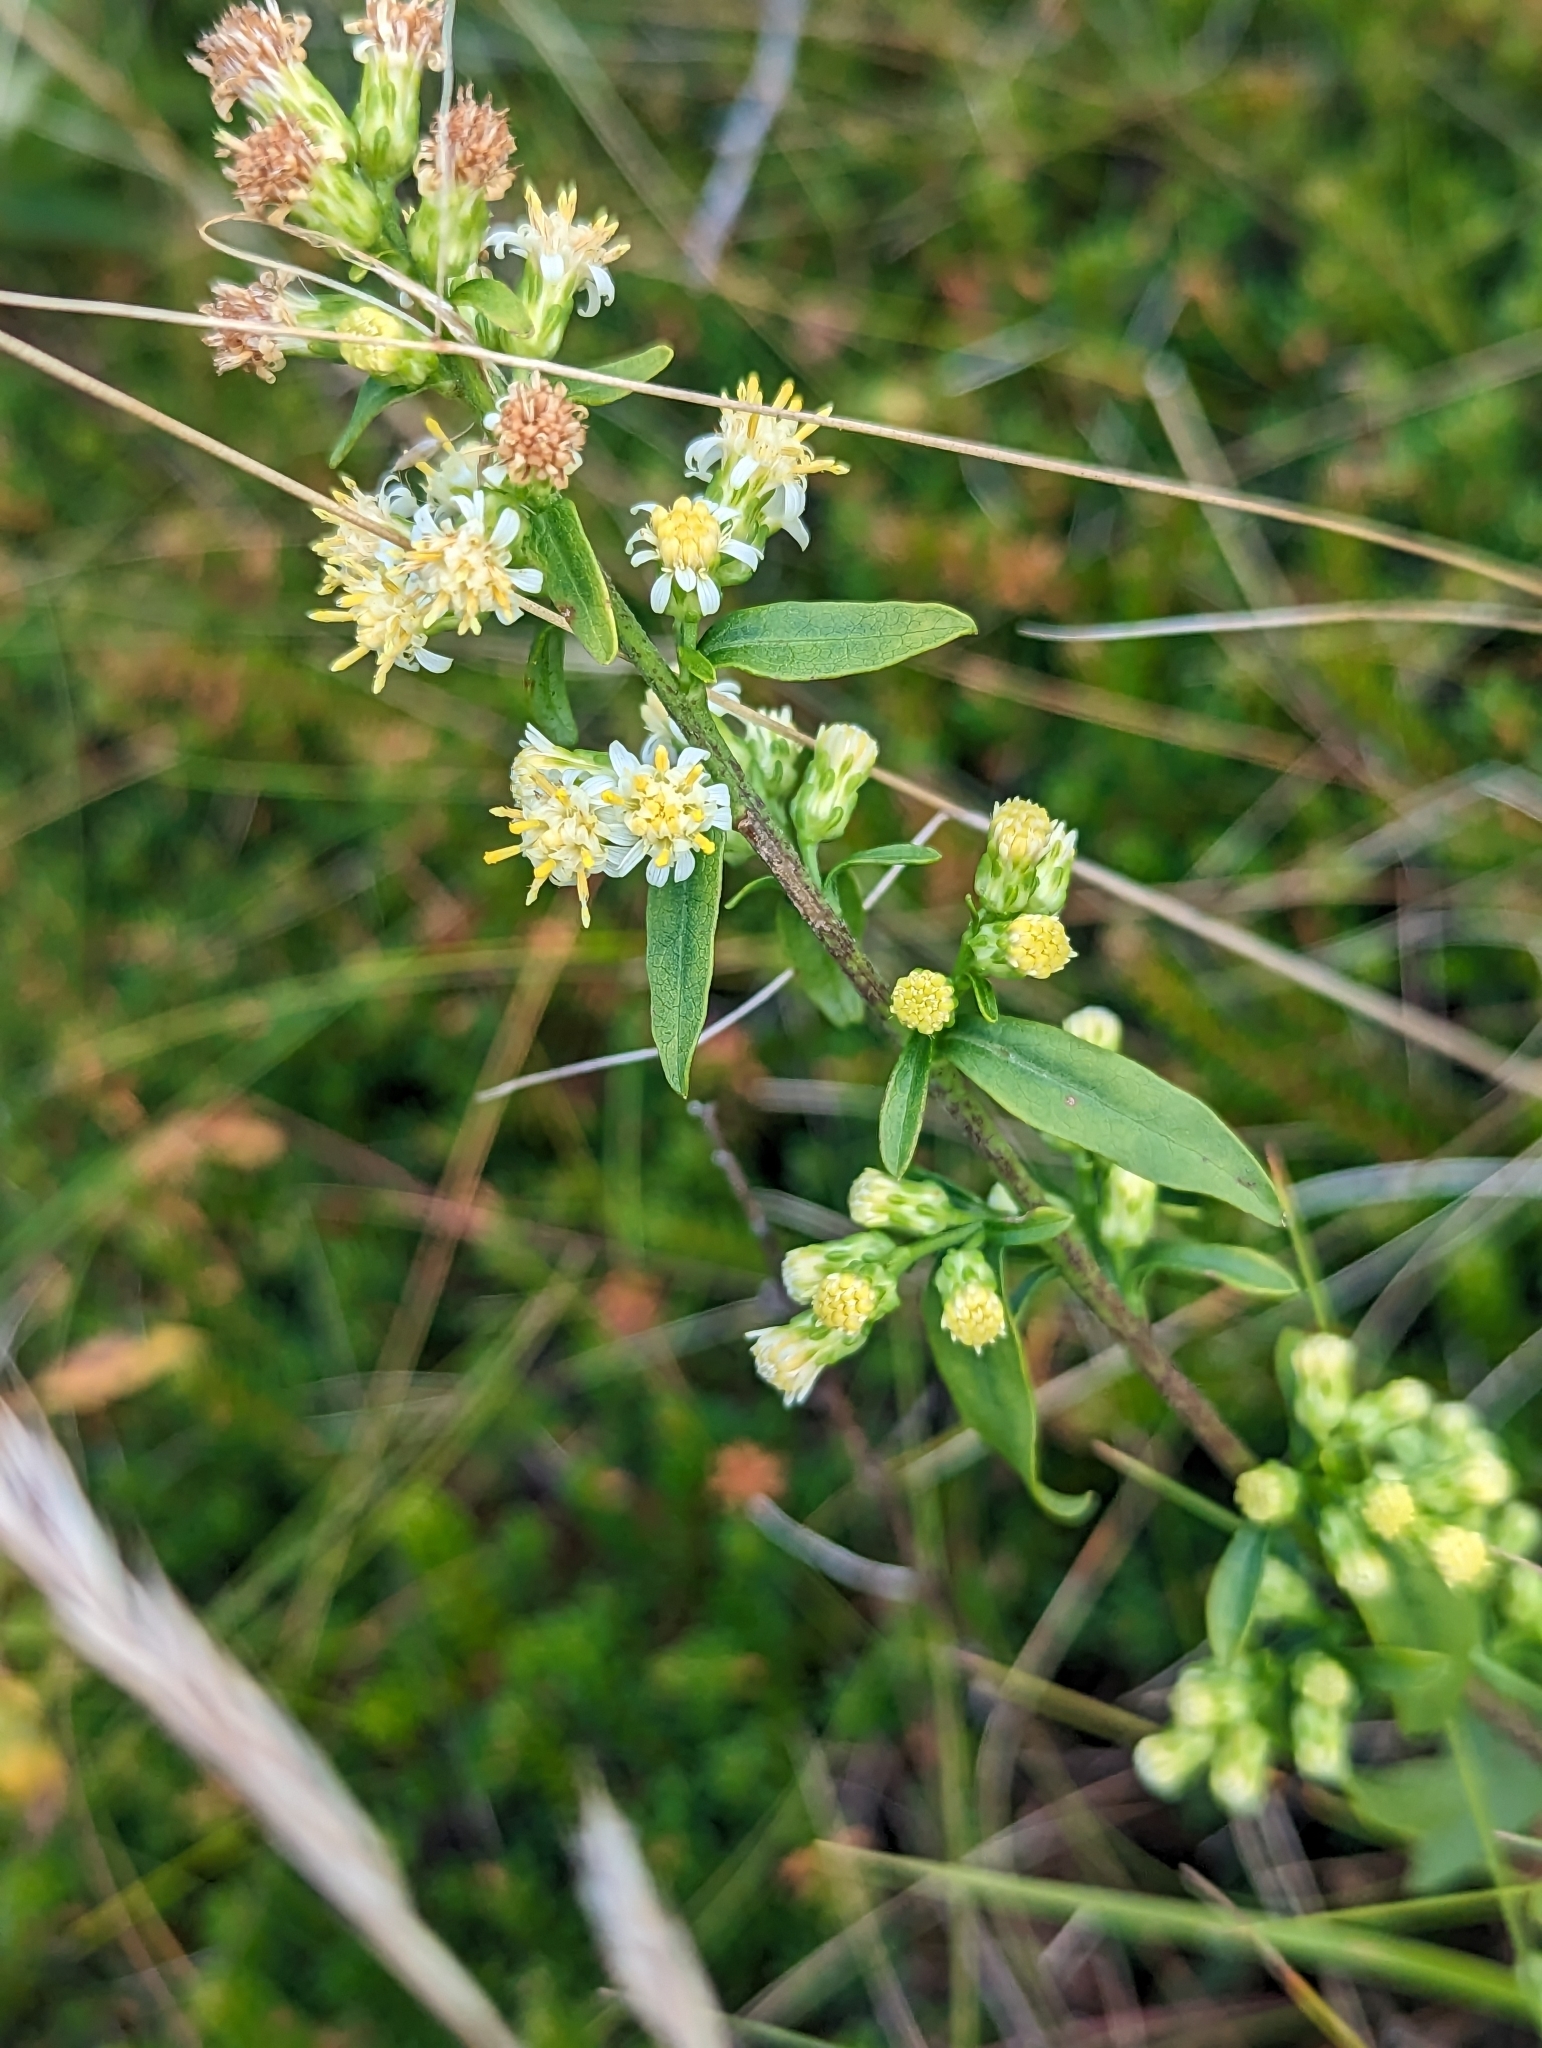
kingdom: Plantae
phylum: Tracheophyta
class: Magnoliopsida
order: Asterales
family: Asteraceae
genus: Solidago
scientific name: Solidago bicolor
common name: Silverrod
